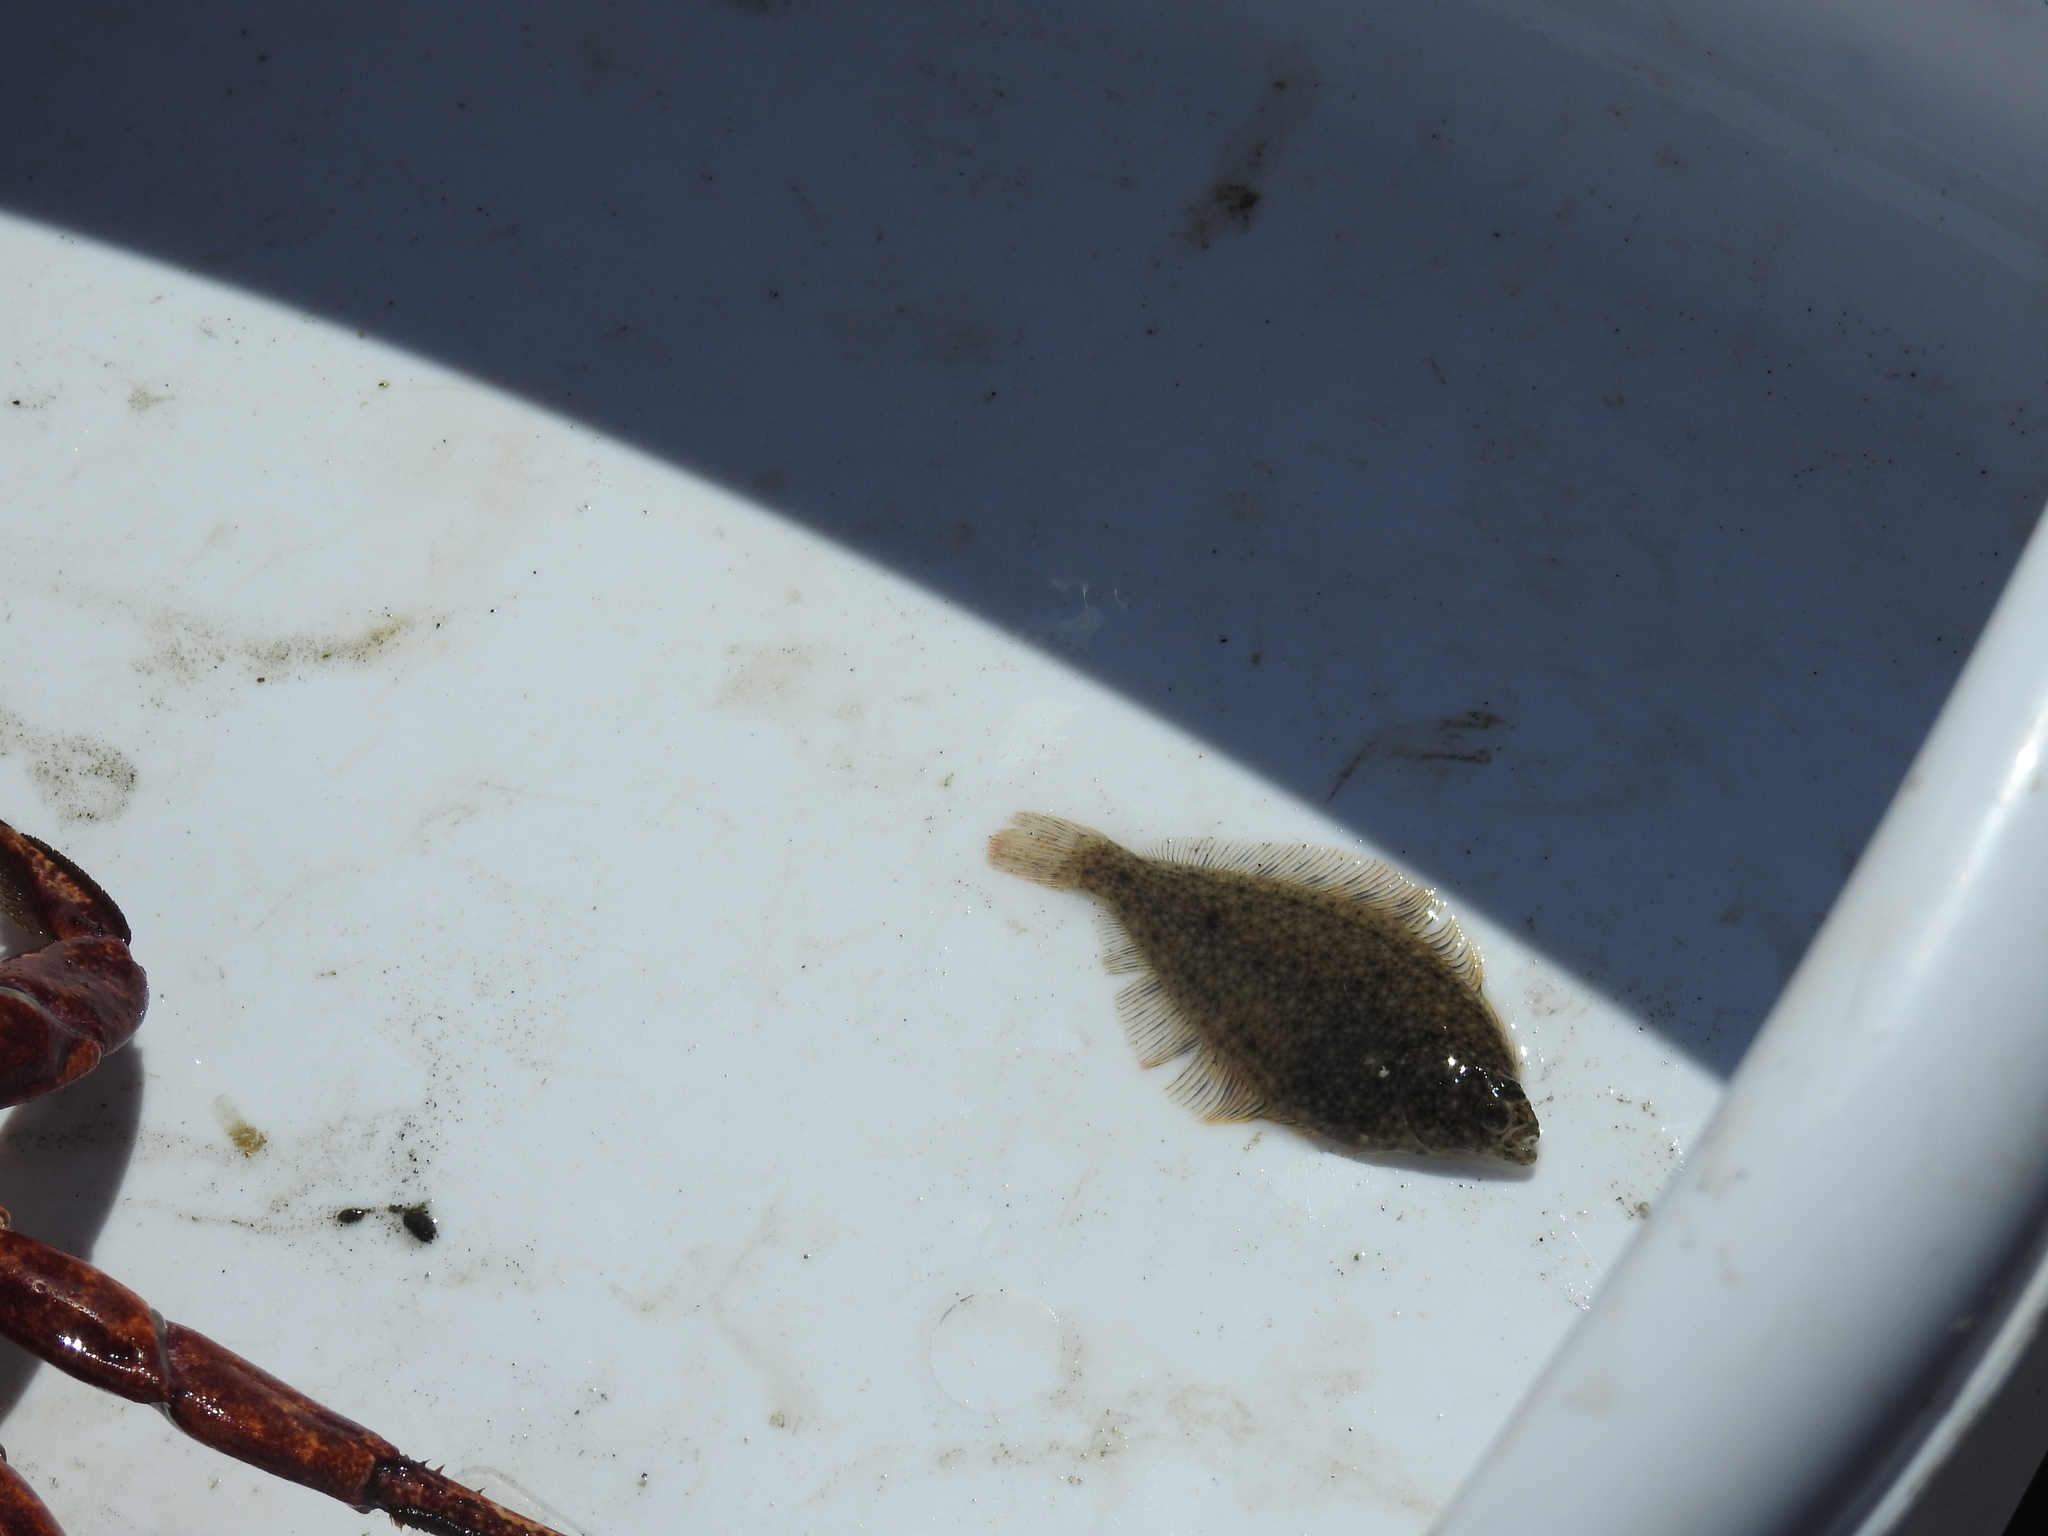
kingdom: Animalia
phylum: Chordata
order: Pleuronectiformes
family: Paralichthyidae
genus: Citharichthys
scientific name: Citharichthys stigmaeus
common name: Speckled sanddab
